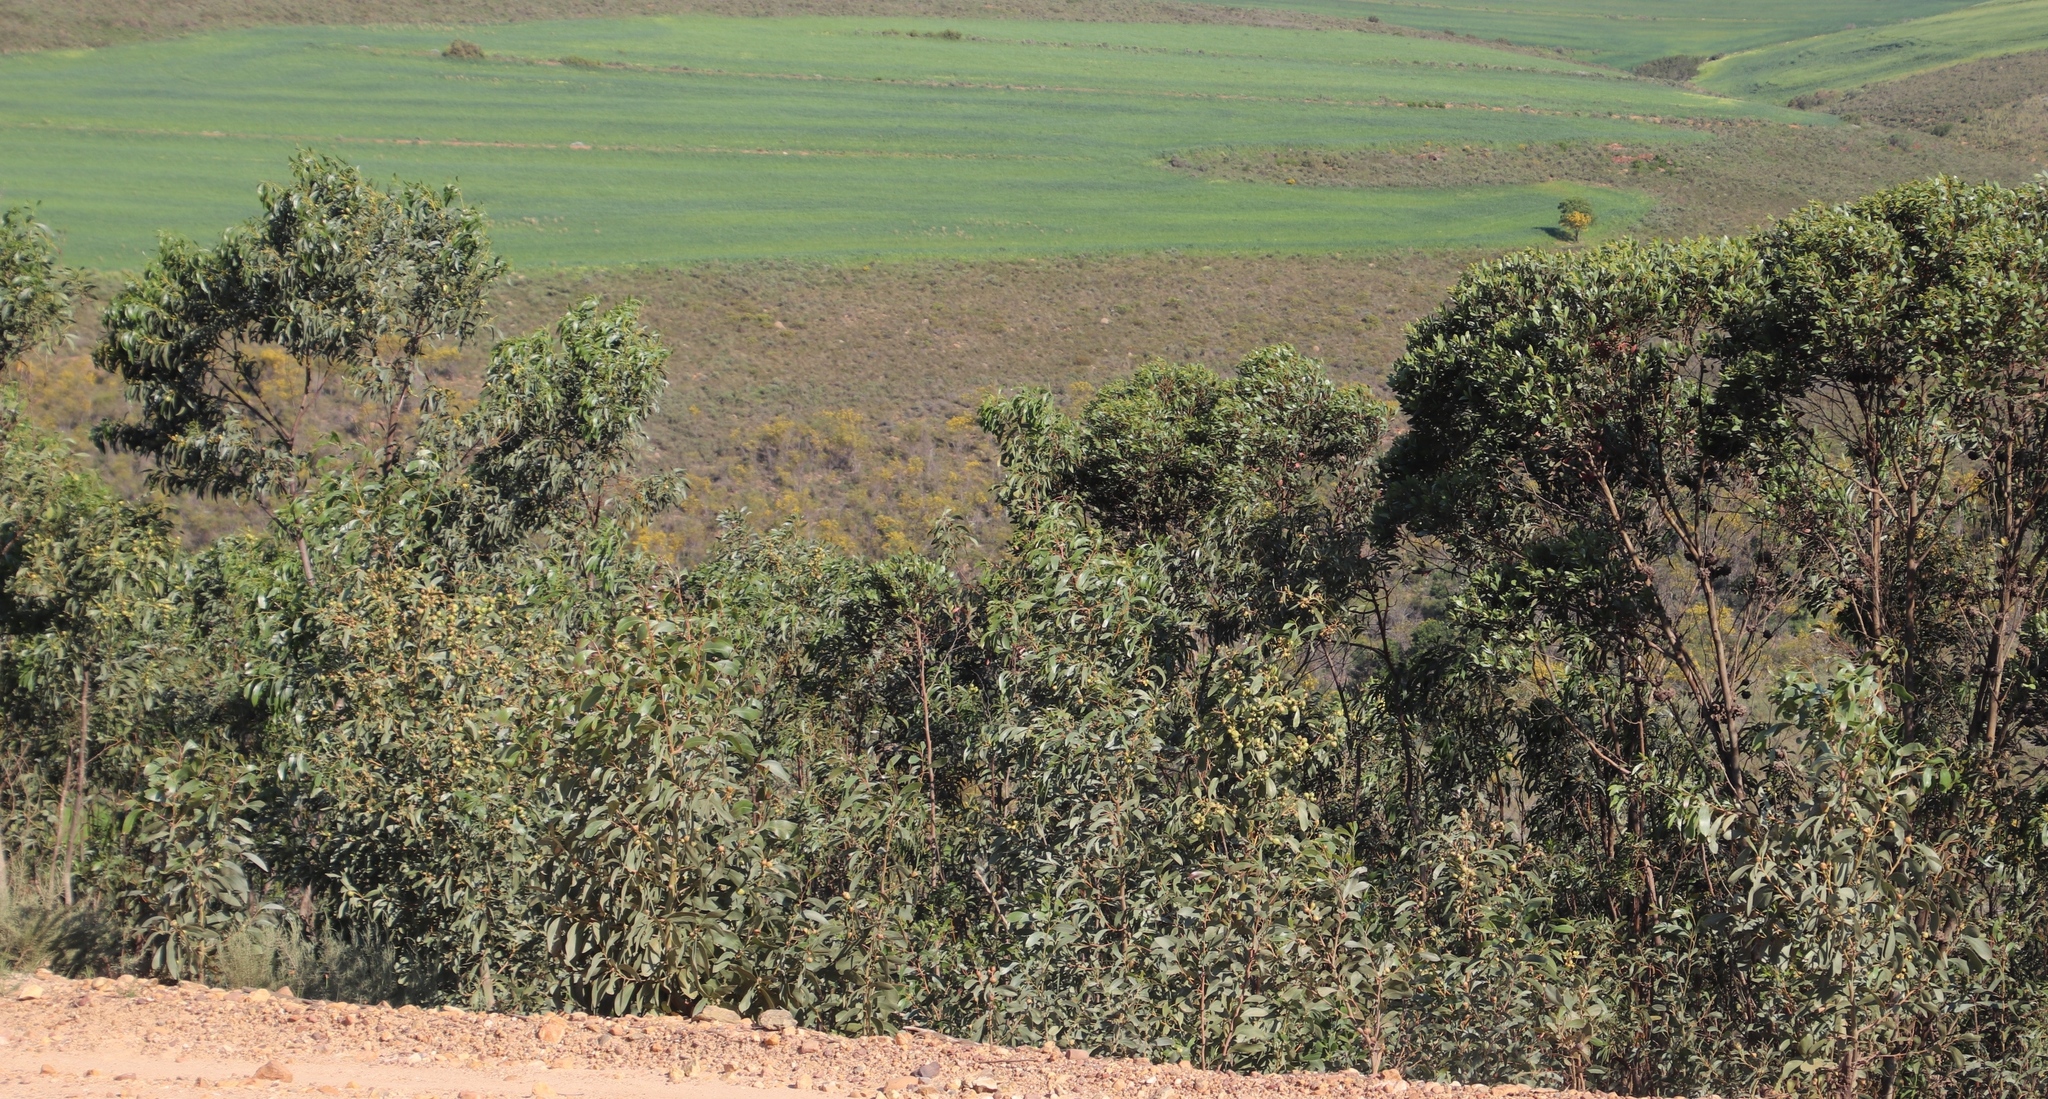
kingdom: Plantae
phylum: Tracheophyta
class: Magnoliopsida
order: Fabales
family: Fabaceae
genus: Acacia
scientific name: Acacia pycnantha
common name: Golden wattle
